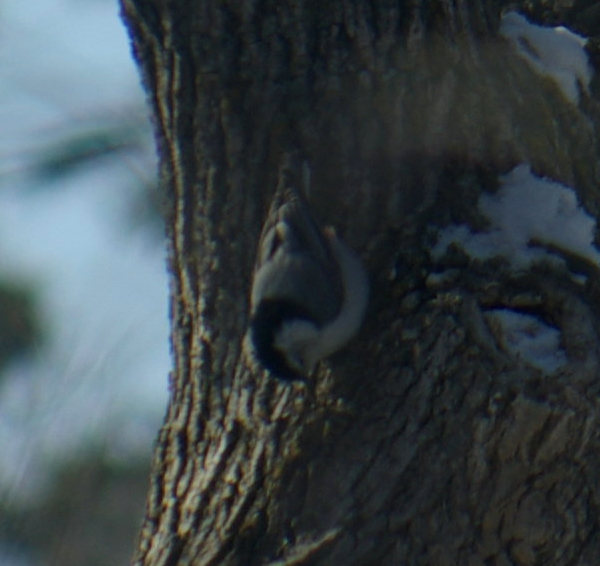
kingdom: Animalia
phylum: Chordata
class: Aves
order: Passeriformes
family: Sittidae
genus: Sitta
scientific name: Sitta carolinensis
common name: White-breasted nuthatch
